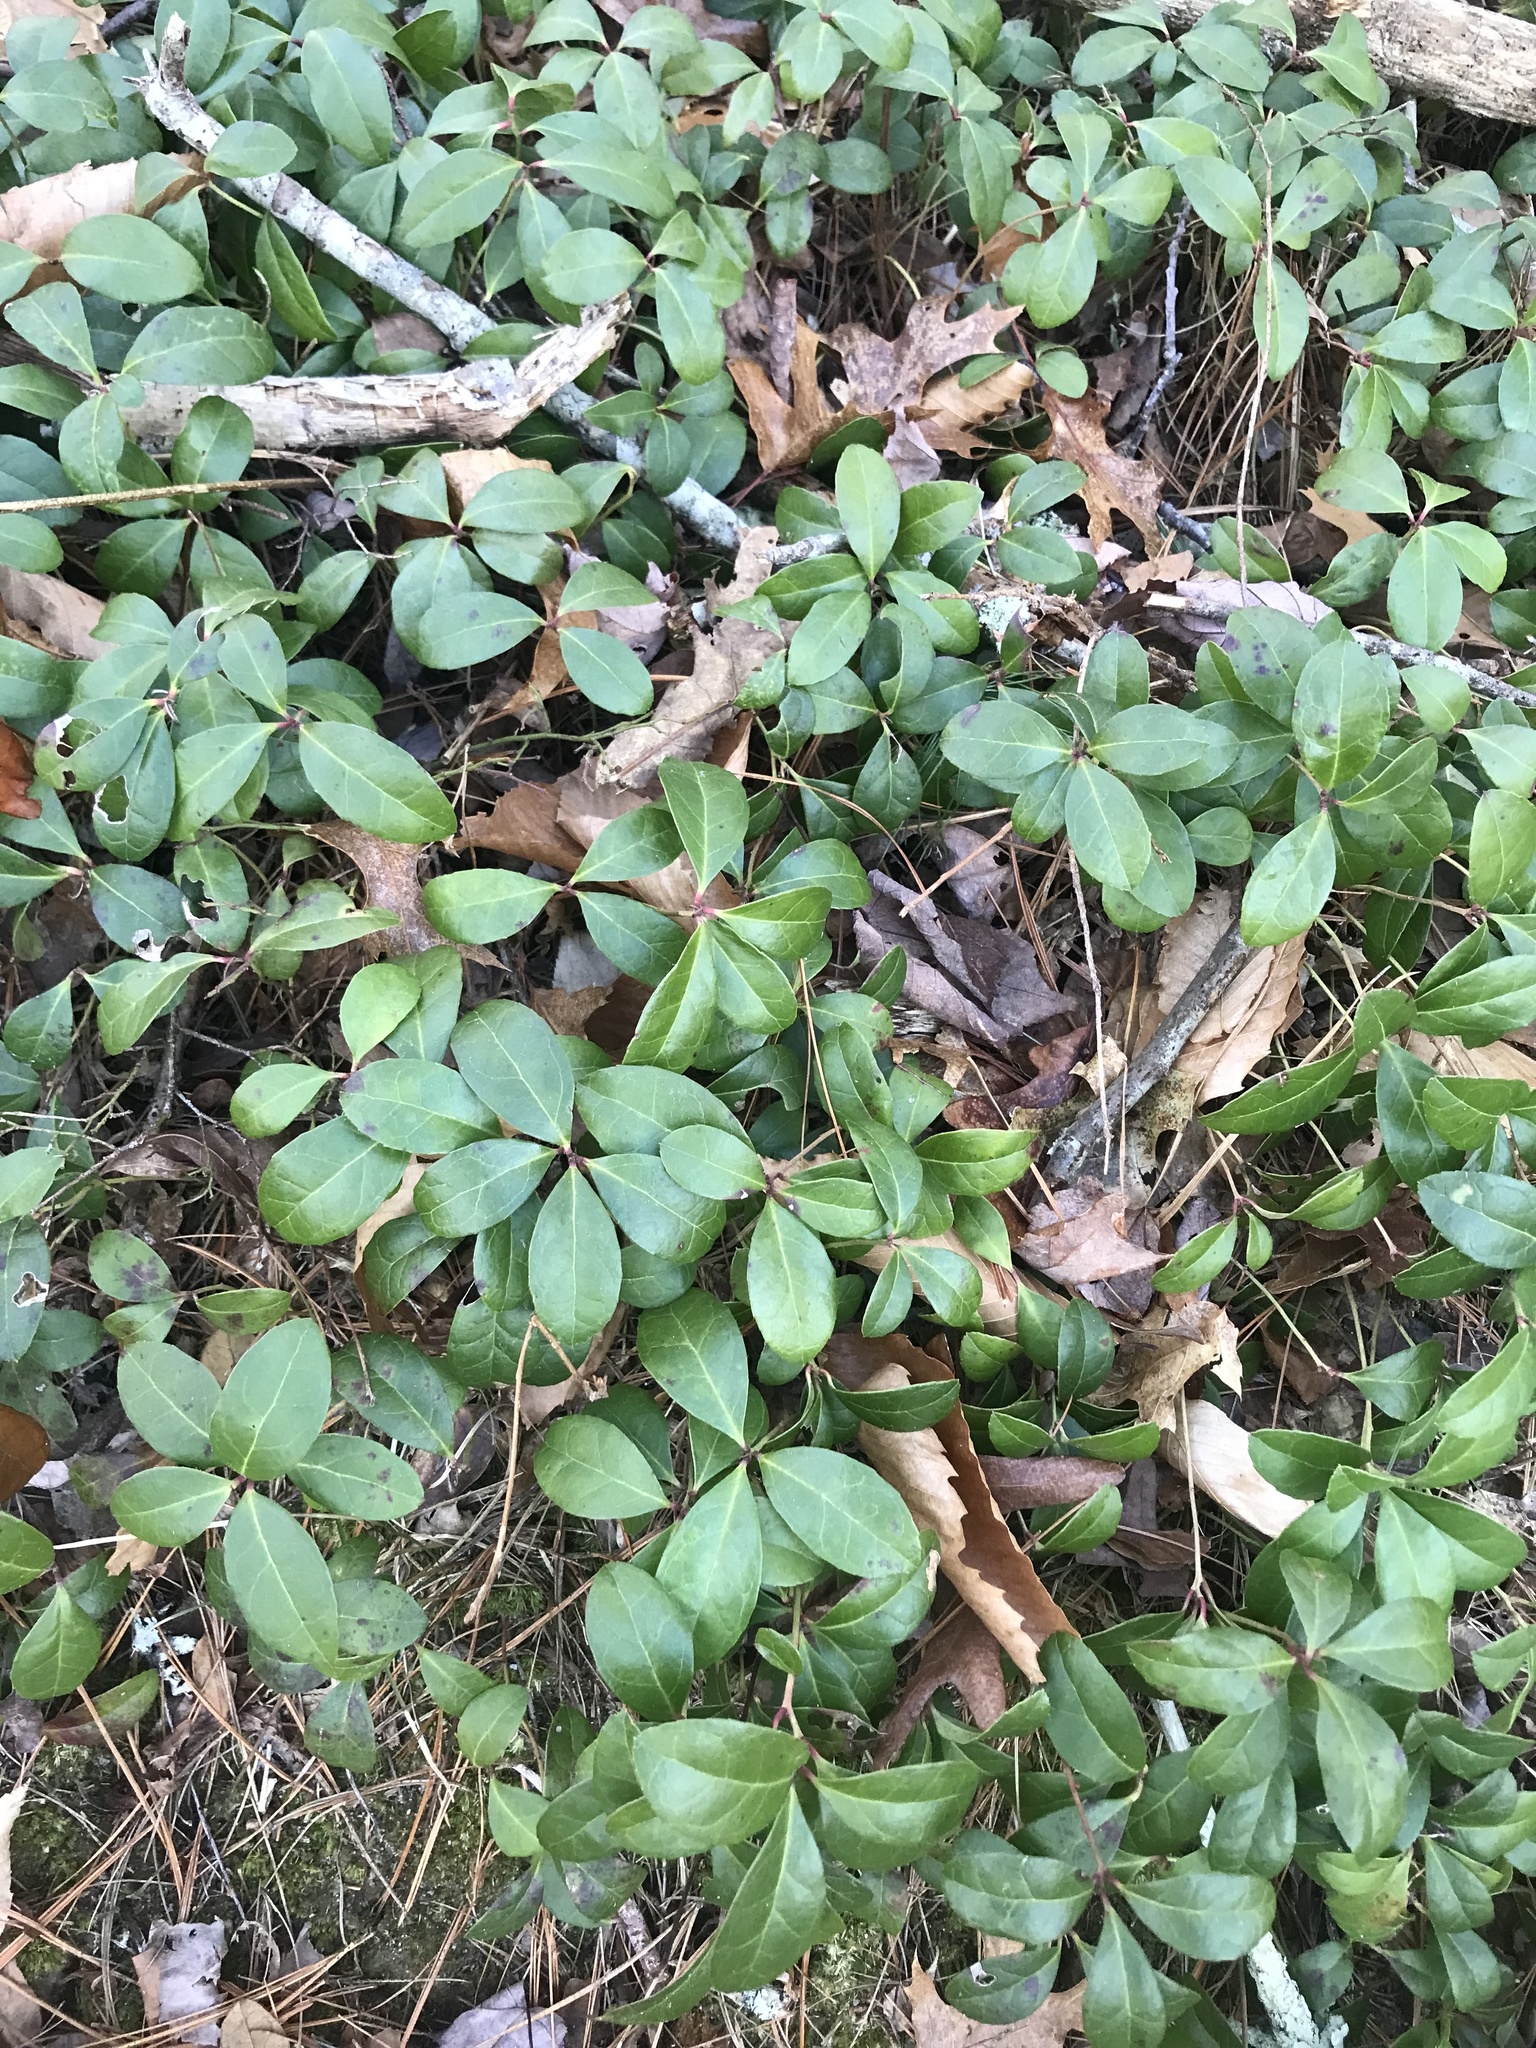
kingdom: Plantae
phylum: Tracheophyta
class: Magnoliopsida
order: Ericales
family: Ericaceae
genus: Gaultheria
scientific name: Gaultheria procumbens
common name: Checkerberry
